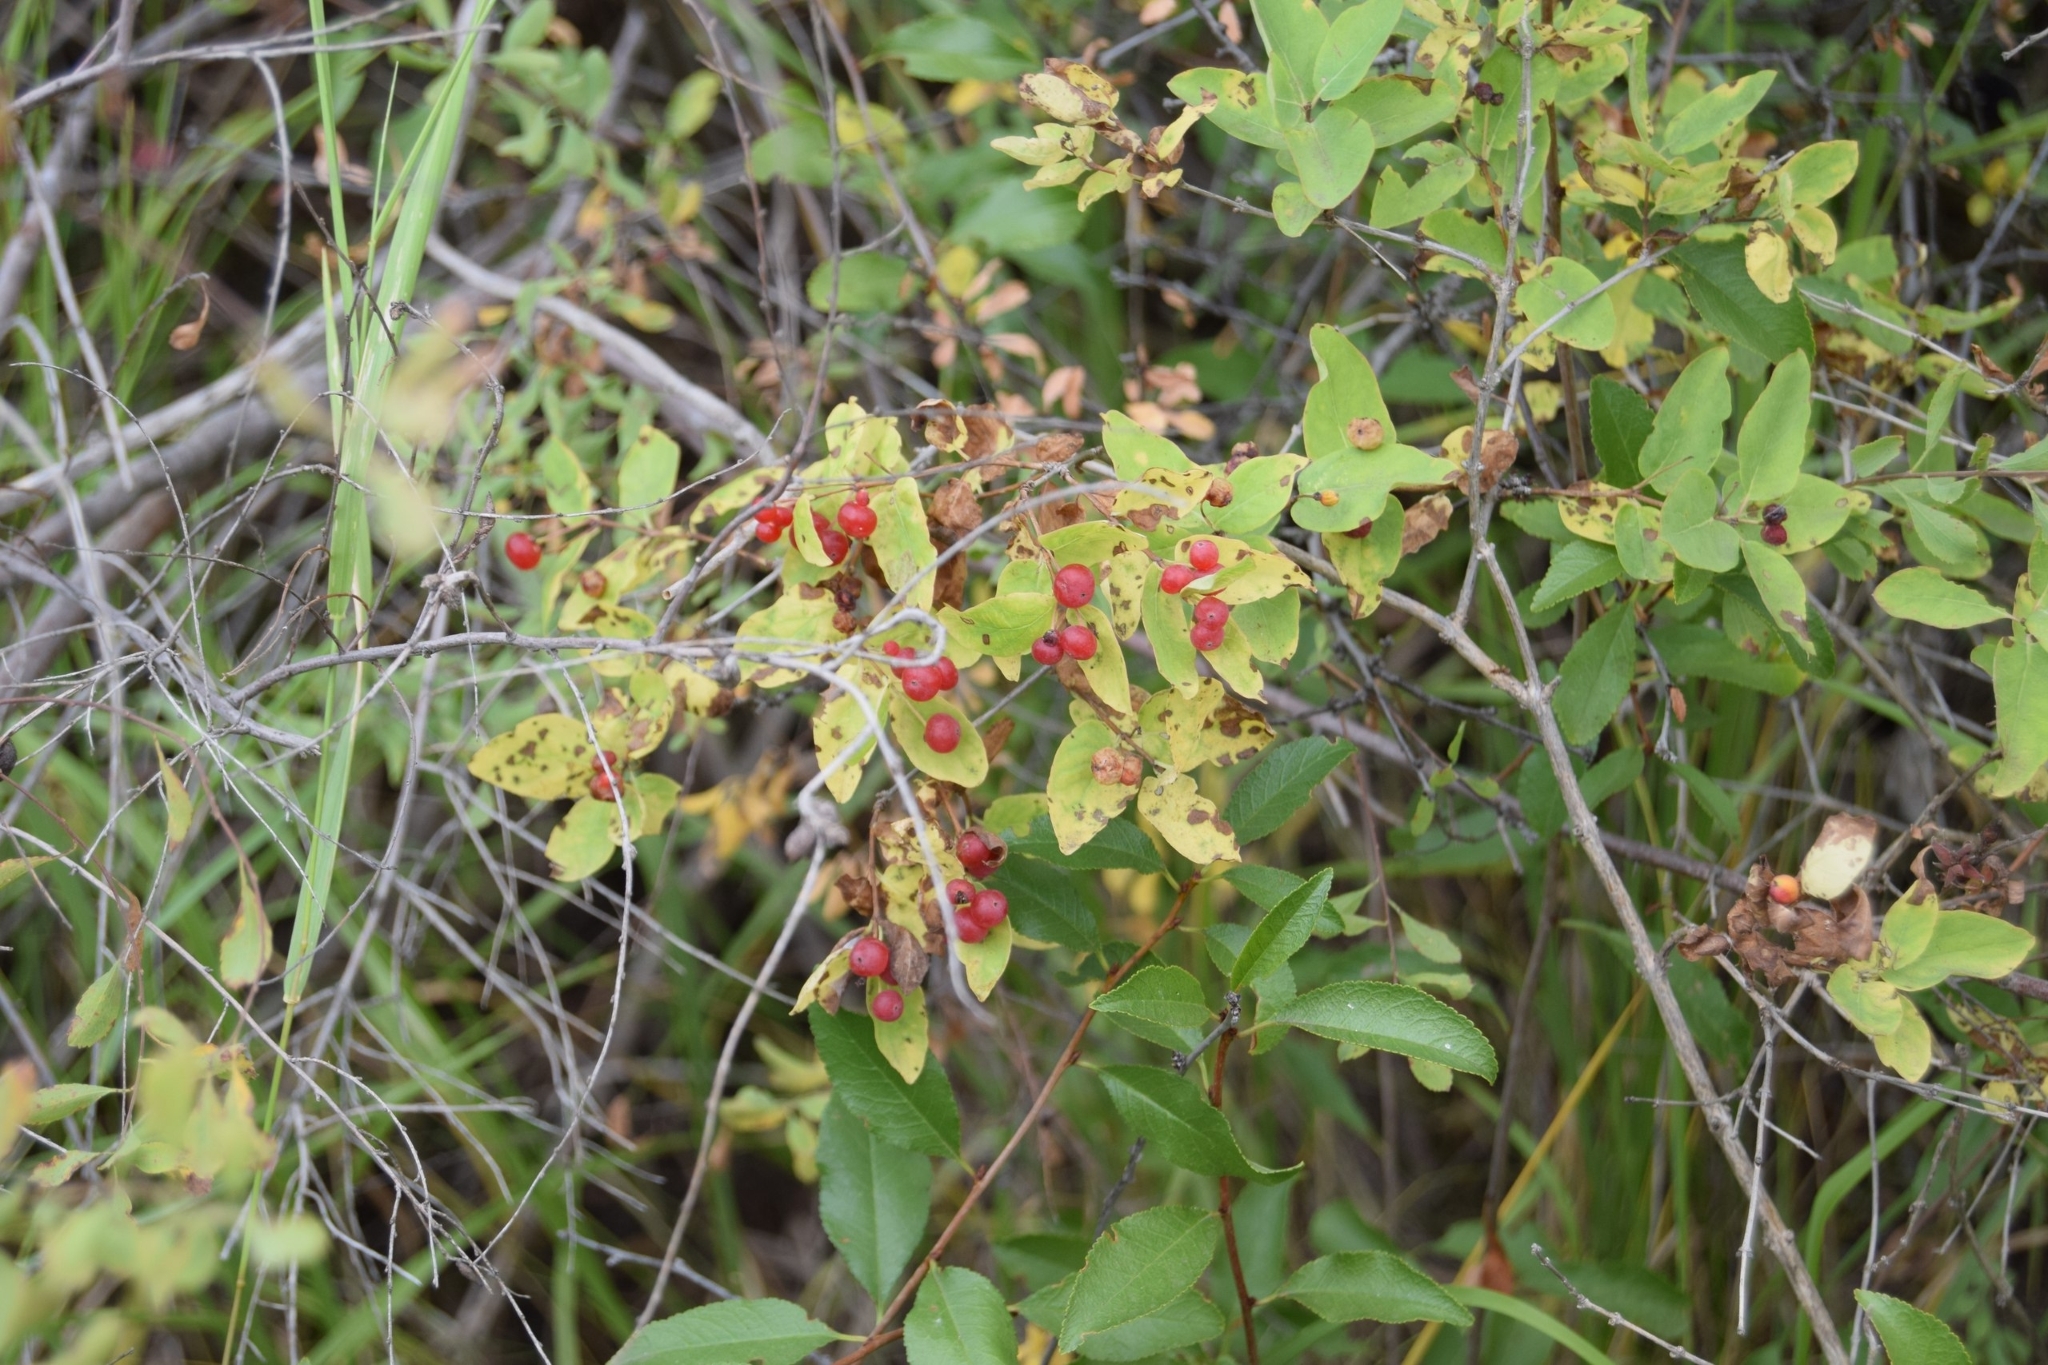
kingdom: Plantae
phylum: Tracheophyta
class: Magnoliopsida
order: Dipsacales
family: Caprifoliaceae
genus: Lonicera
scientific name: Lonicera tatarica
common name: Tatarian honeysuckle
